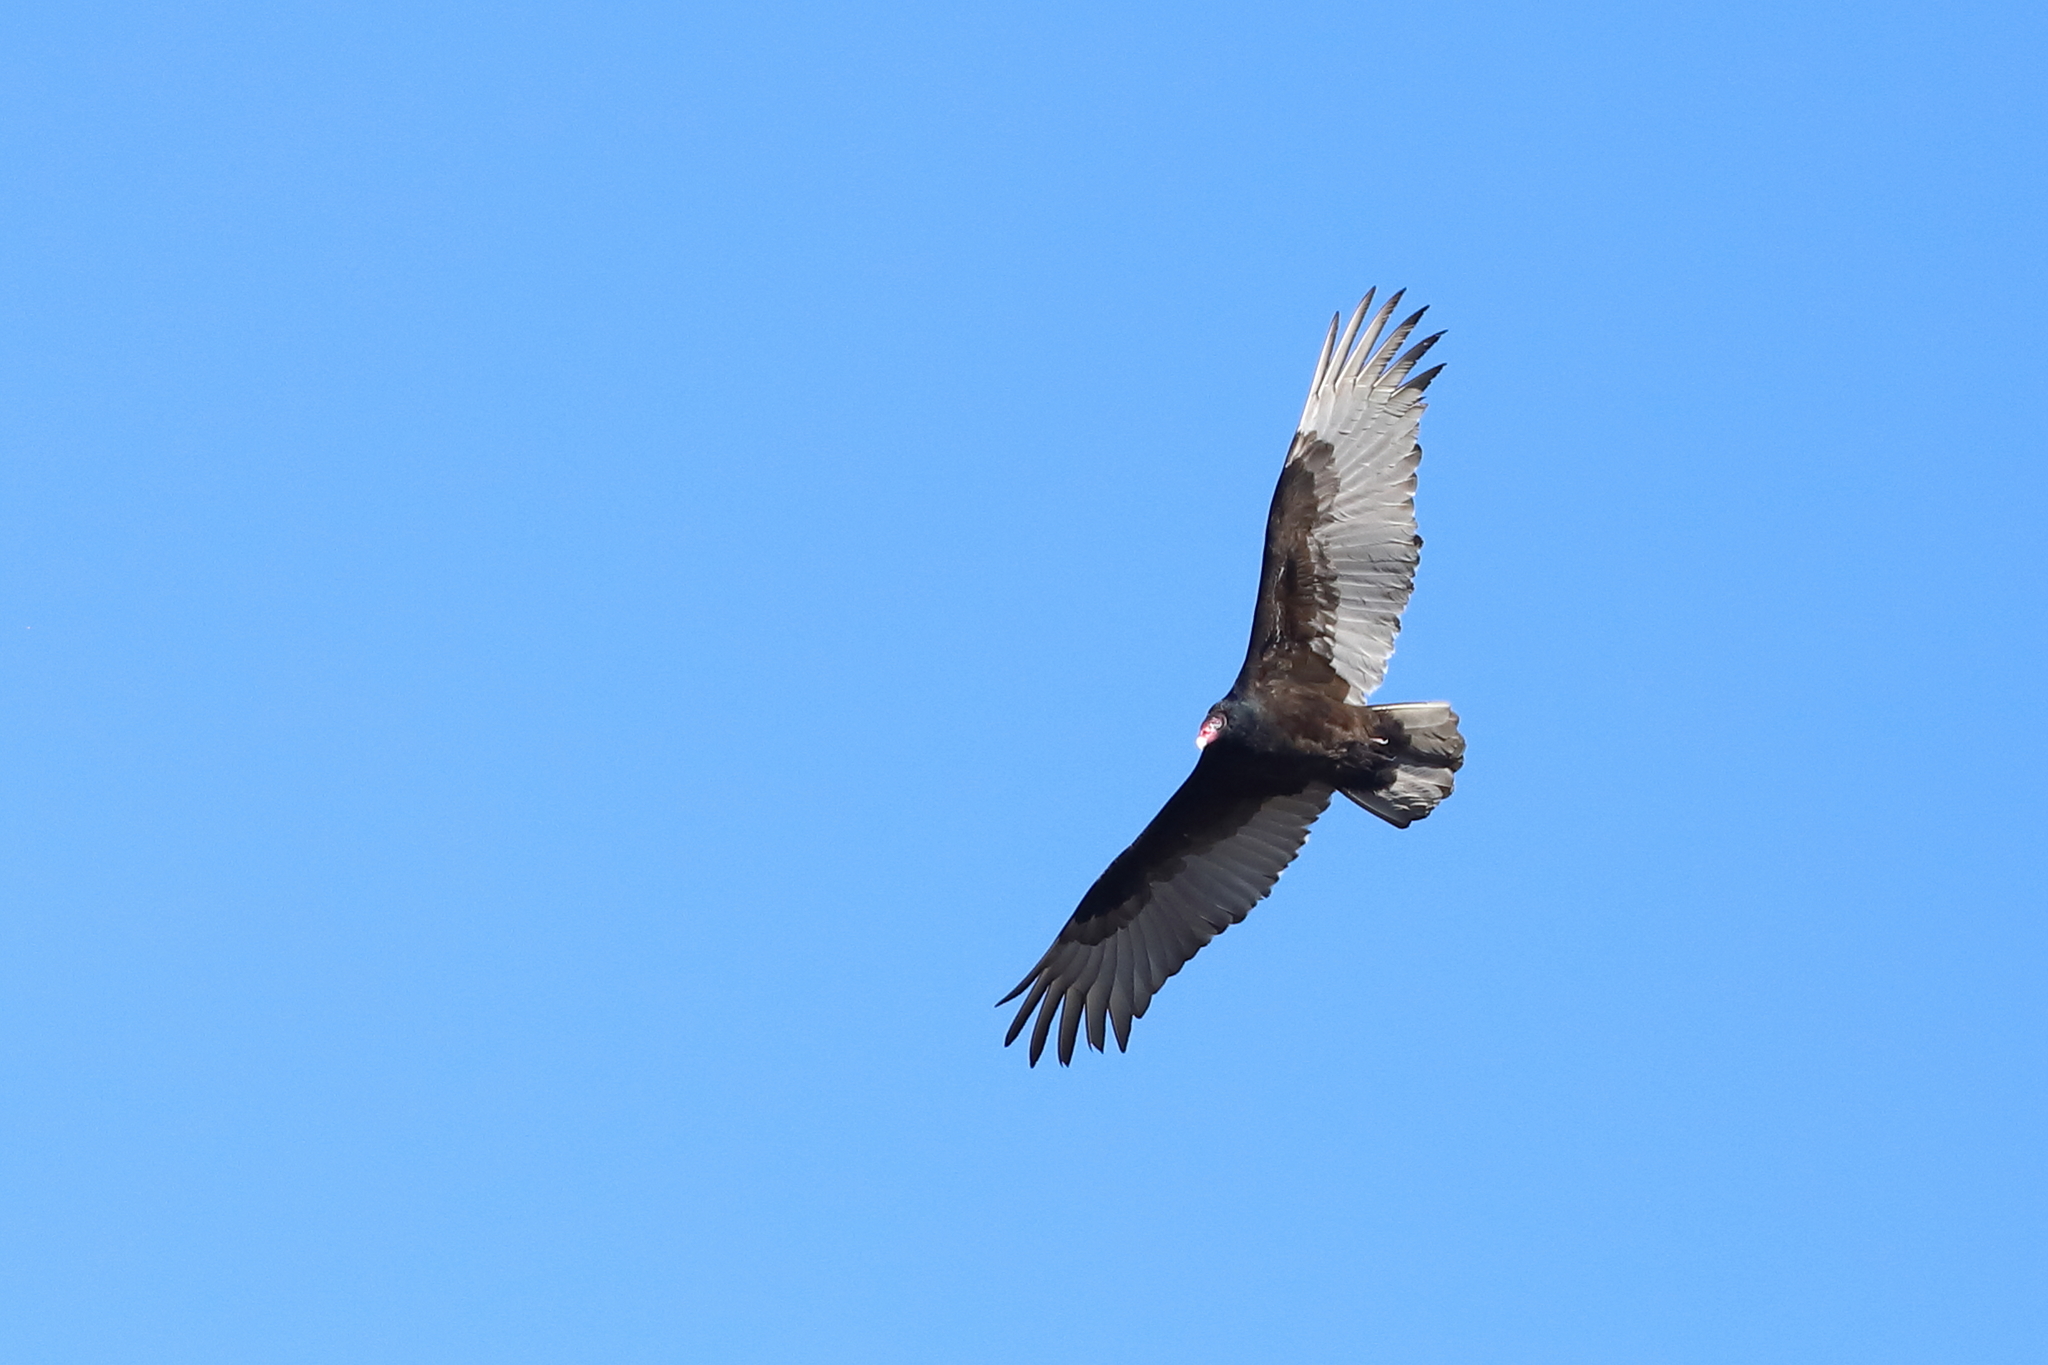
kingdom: Animalia
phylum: Chordata
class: Aves
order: Accipitriformes
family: Cathartidae
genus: Cathartes
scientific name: Cathartes aura
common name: Turkey vulture
